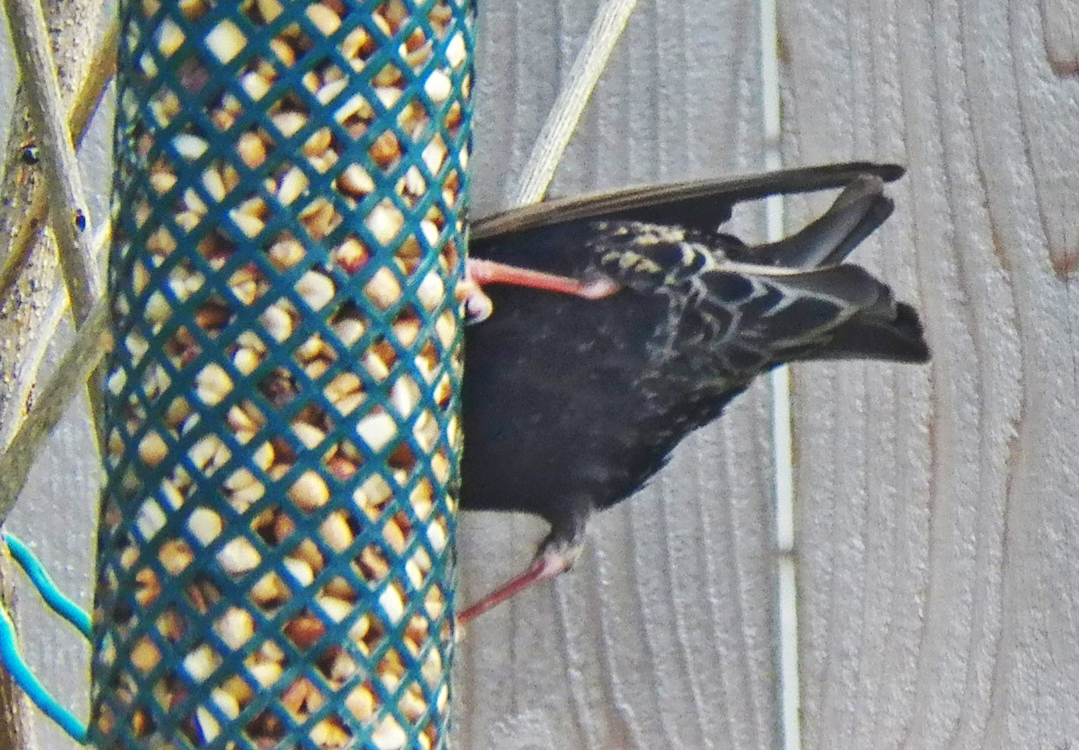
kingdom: Animalia
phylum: Chordata
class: Aves
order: Passeriformes
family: Sturnidae
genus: Sturnus
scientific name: Sturnus vulgaris
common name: Common starling
